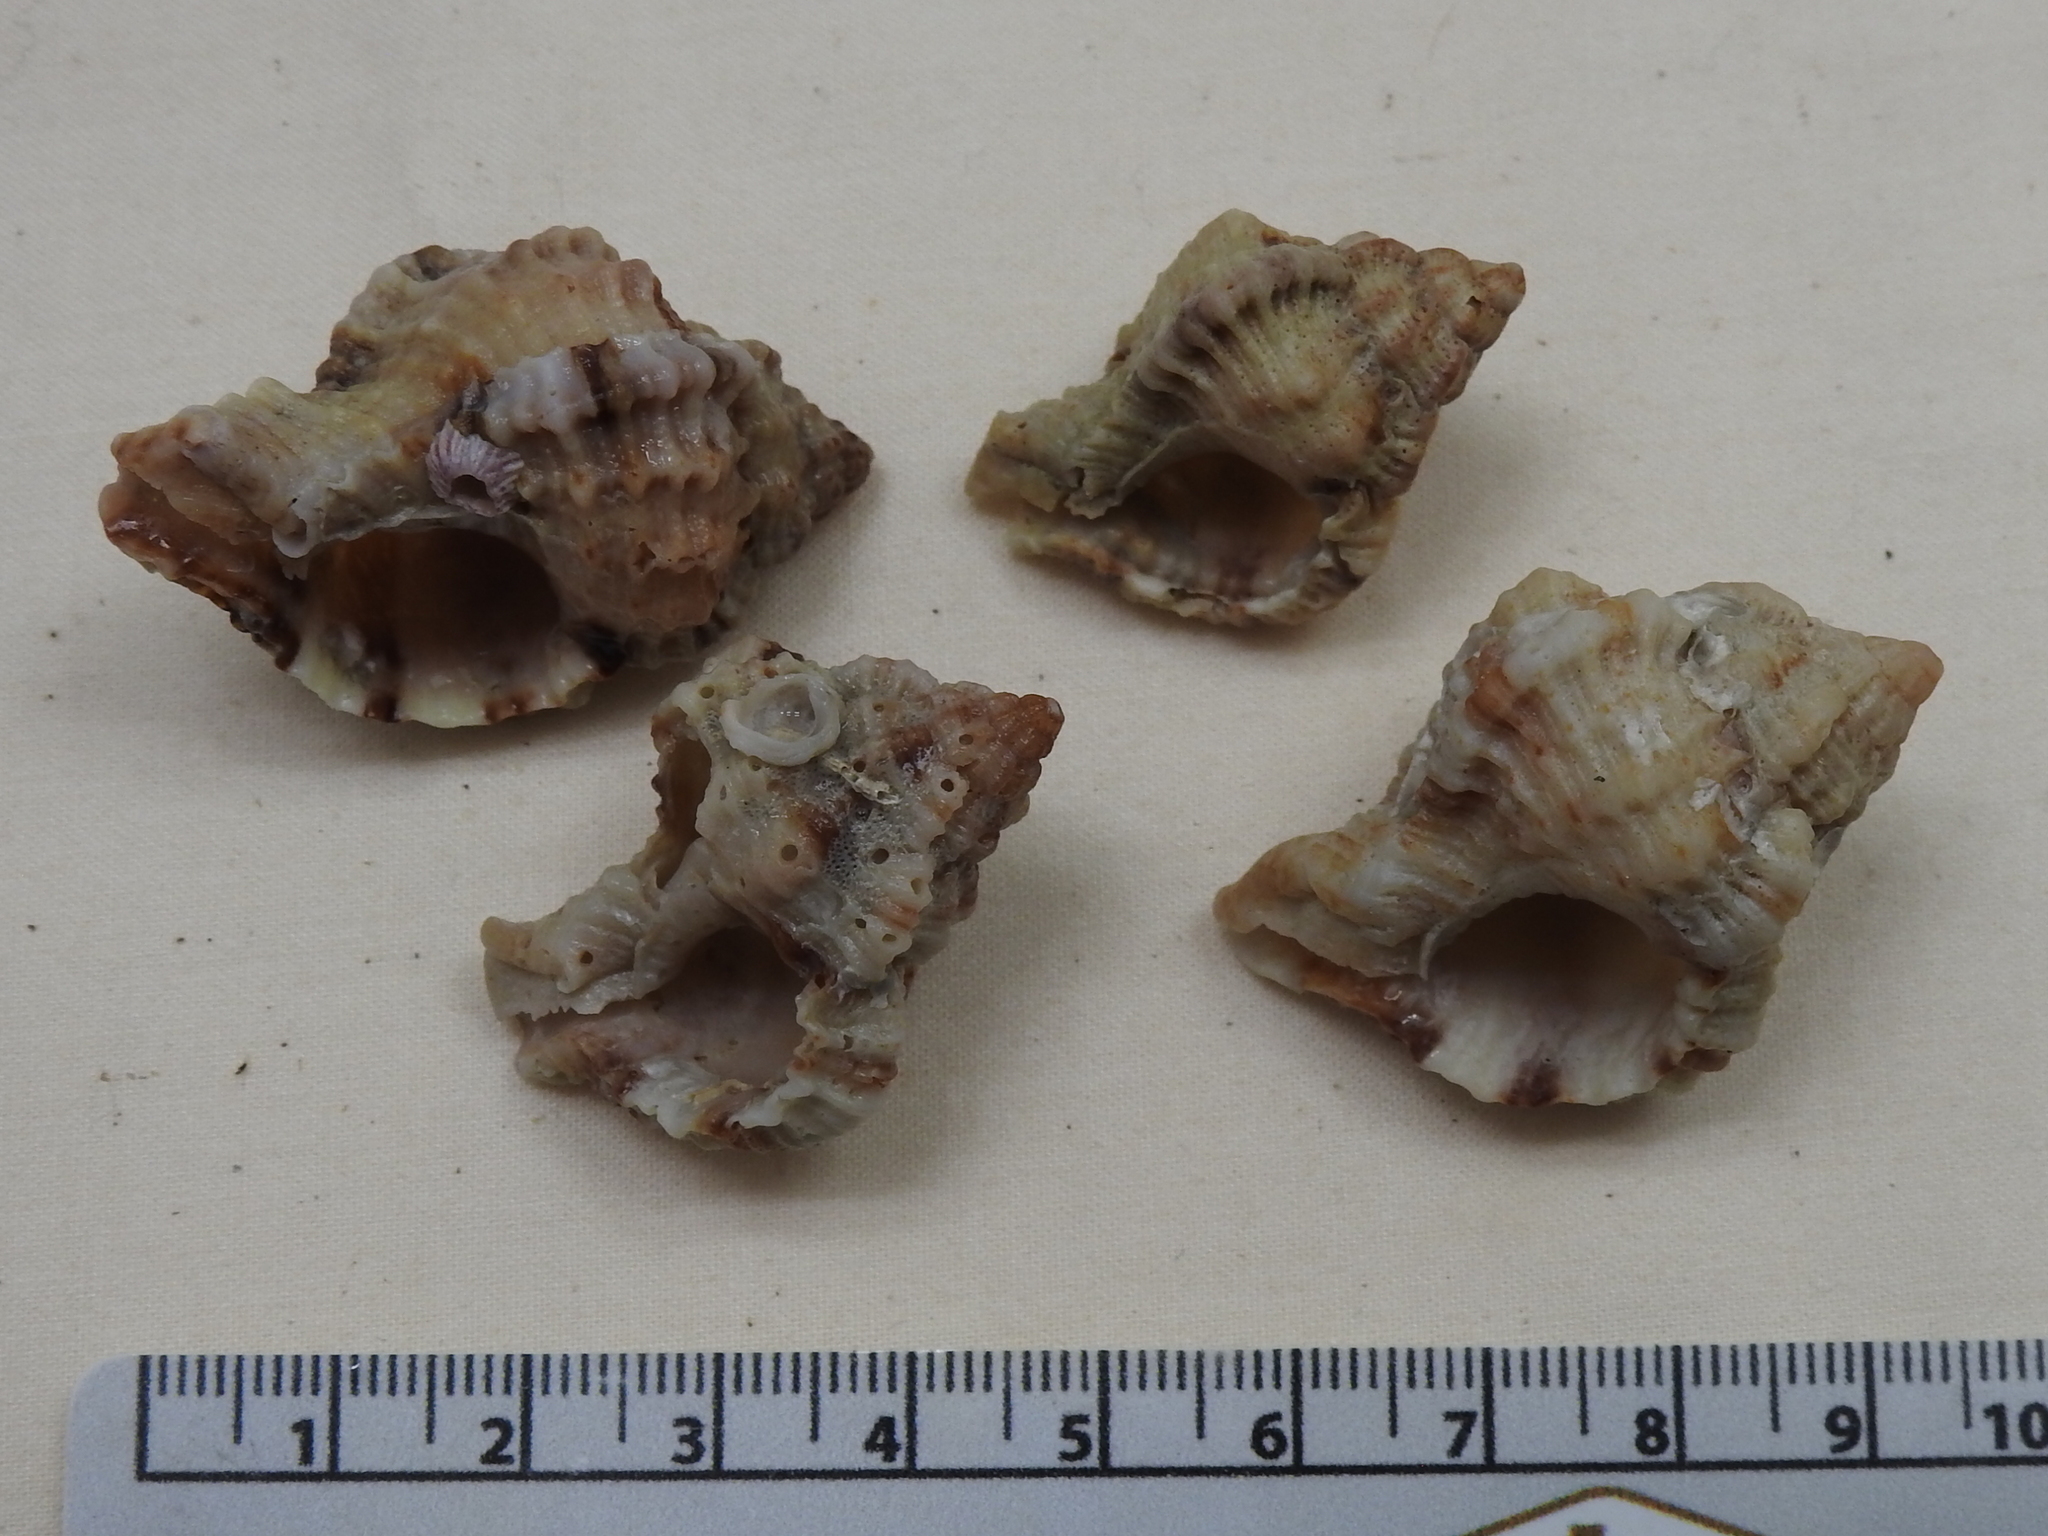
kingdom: Animalia
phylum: Mollusca
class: Gastropoda
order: Neogastropoda
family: Muricidae
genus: Phyllonotus
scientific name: Phyllonotus pomum
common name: Apple murex
